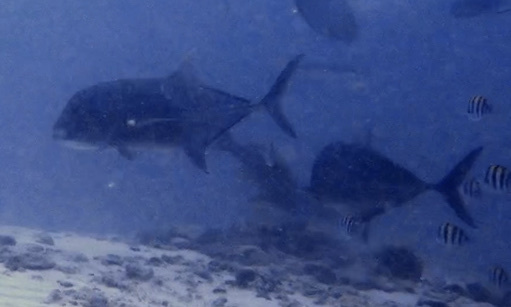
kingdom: Animalia
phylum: Chordata
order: Perciformes
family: Carangidae
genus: Caranx
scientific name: Caranx ignobilis
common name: Giant trevally
